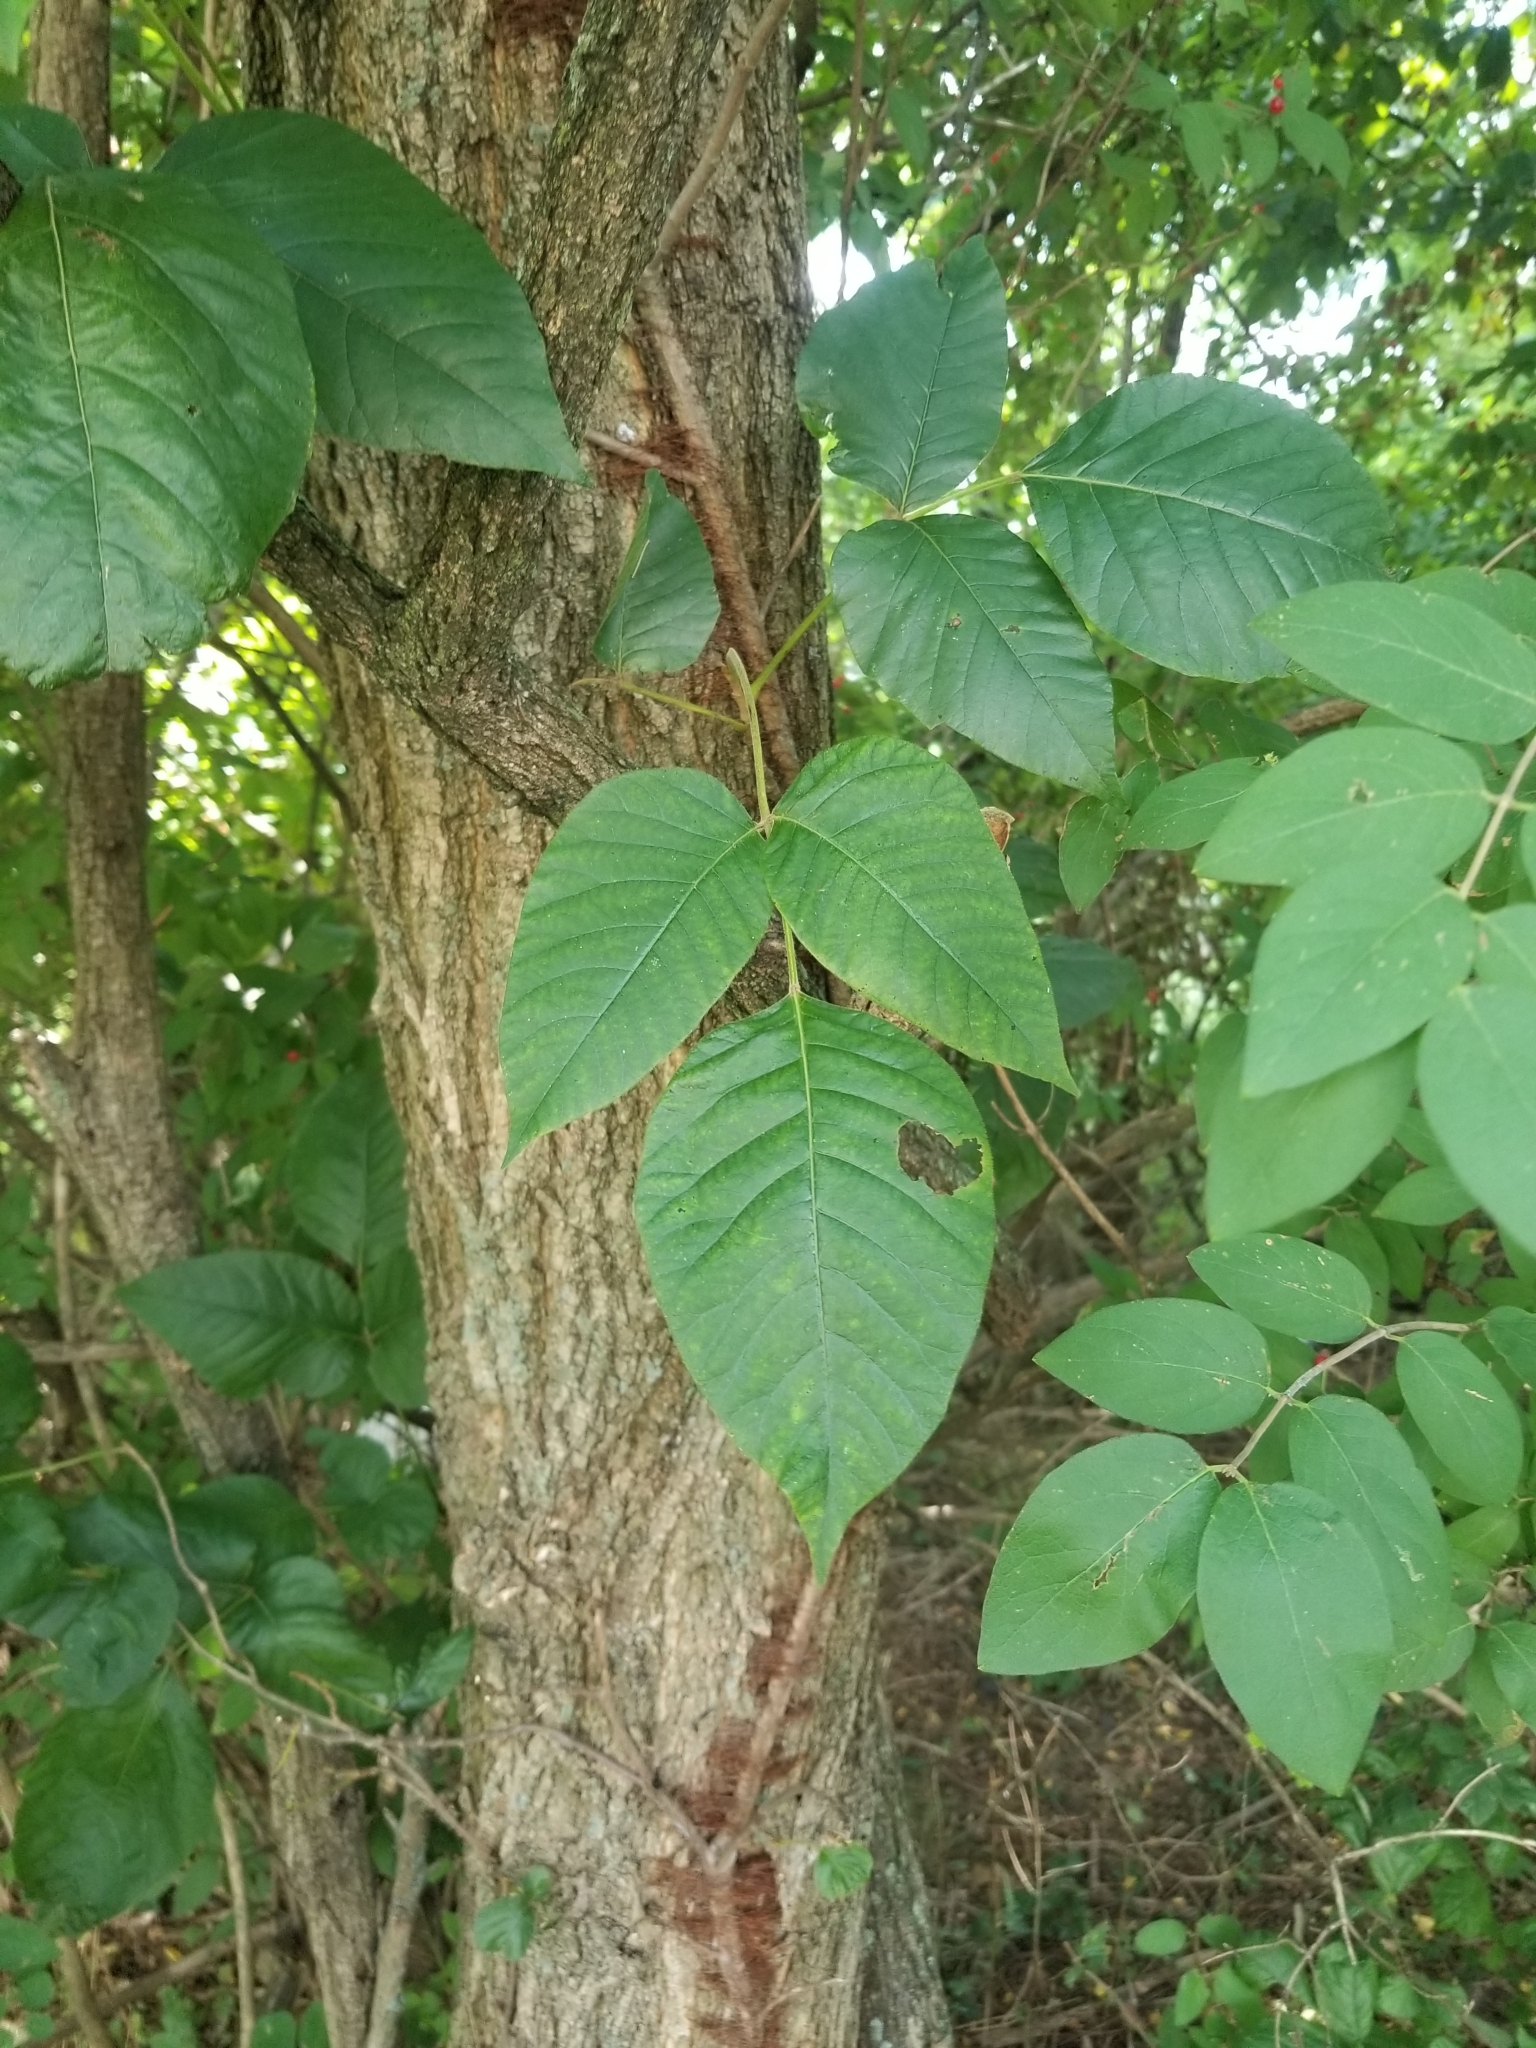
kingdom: Plantae
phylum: Tracheophyta
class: Magnoliopsida
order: Sapindales
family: Anacardiaceae
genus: Toxicodendron
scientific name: Toxicodendron radicans
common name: Poison ivy
